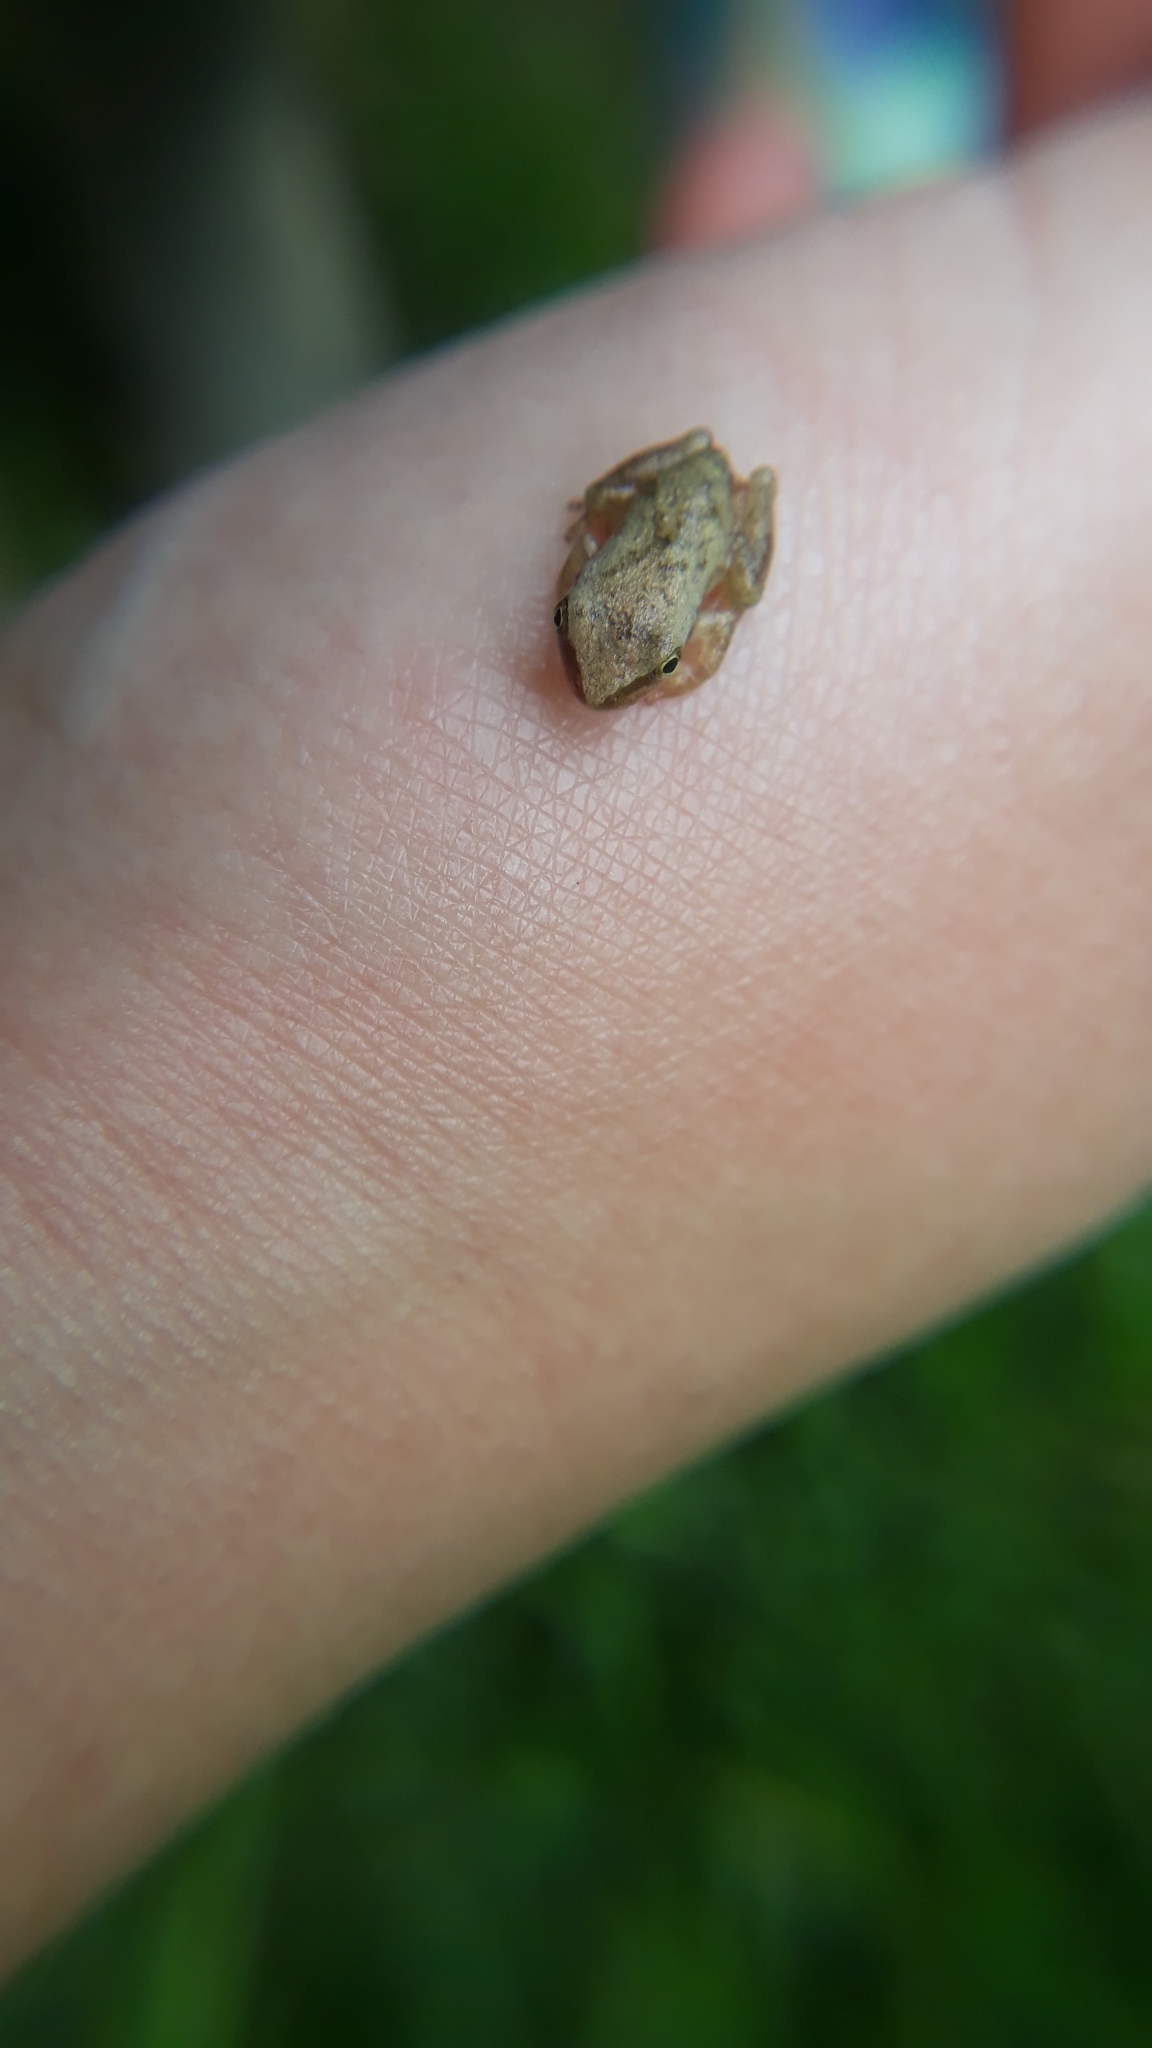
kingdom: Animalia
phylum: Chordata
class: Amphibia
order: Anura
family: Hylidae
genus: Pseudacris
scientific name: Pseudacris crucifer
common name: Spring peeper
